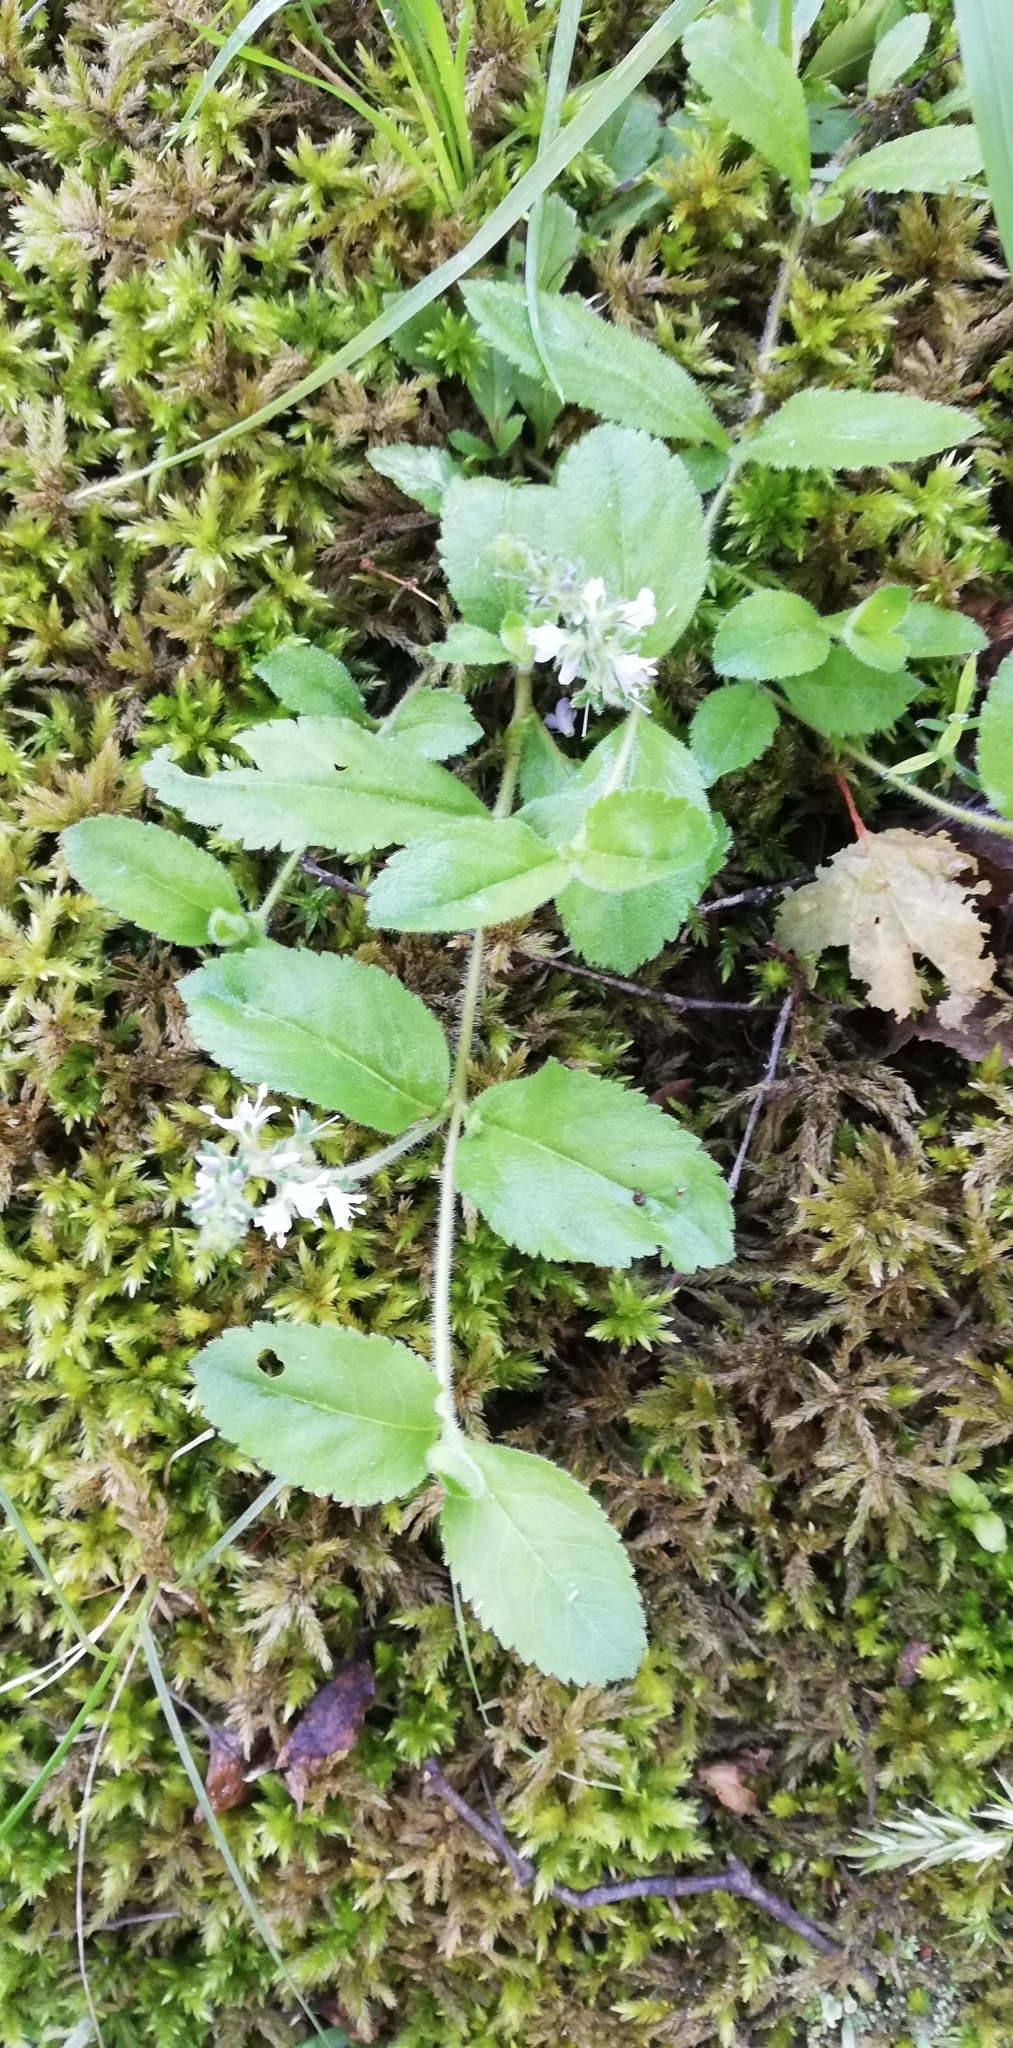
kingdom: Plantae
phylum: Tracheophyta
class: Magnoliopsida
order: Lamiales
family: Plantaginaceae
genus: Veronica
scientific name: Veronica officinalis
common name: Common speedwell
